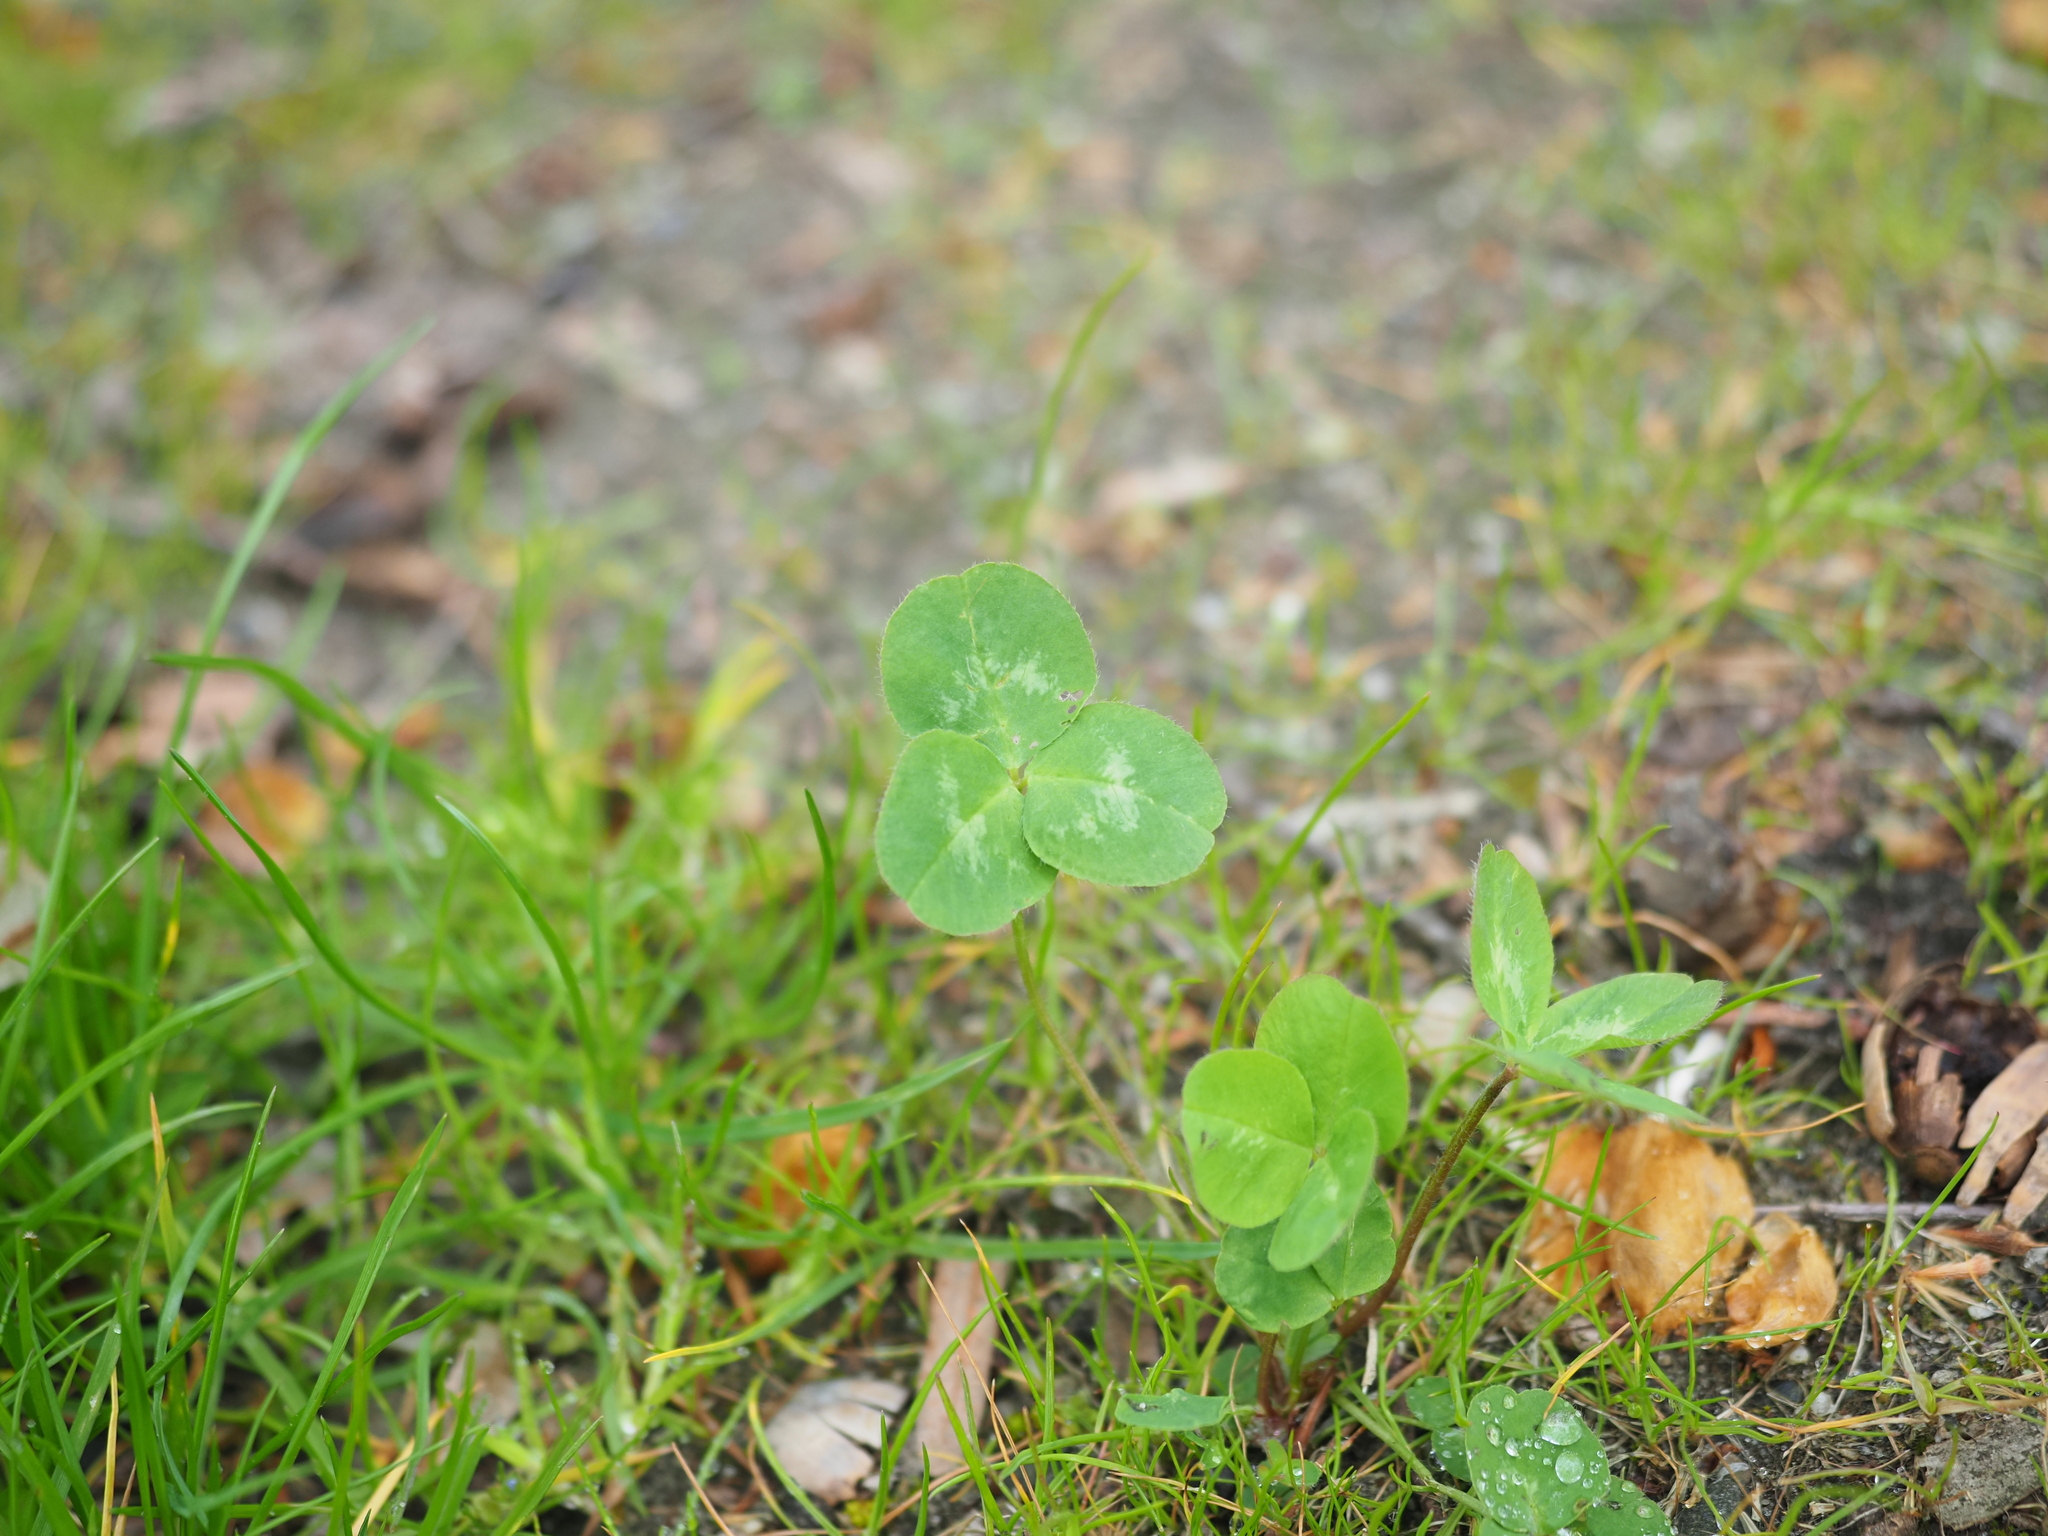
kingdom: Plantae
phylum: Tracheophyta
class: Magnoliopsida
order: Fabales
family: Fabaceae
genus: Trifolium
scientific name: Trifolium pratense
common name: Red clover
